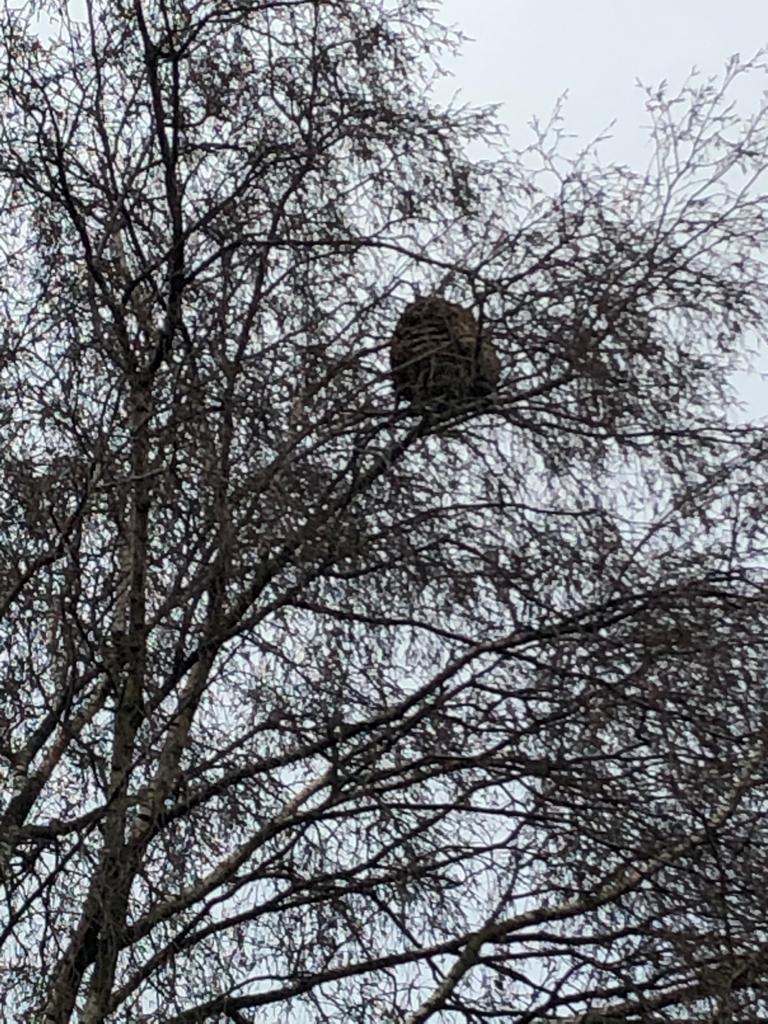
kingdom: Animalia
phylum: Arthropoda
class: Insecta
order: Hymenoptera
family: Vespidae
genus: Vespa
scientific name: Vespa velutina
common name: Asian hornet
